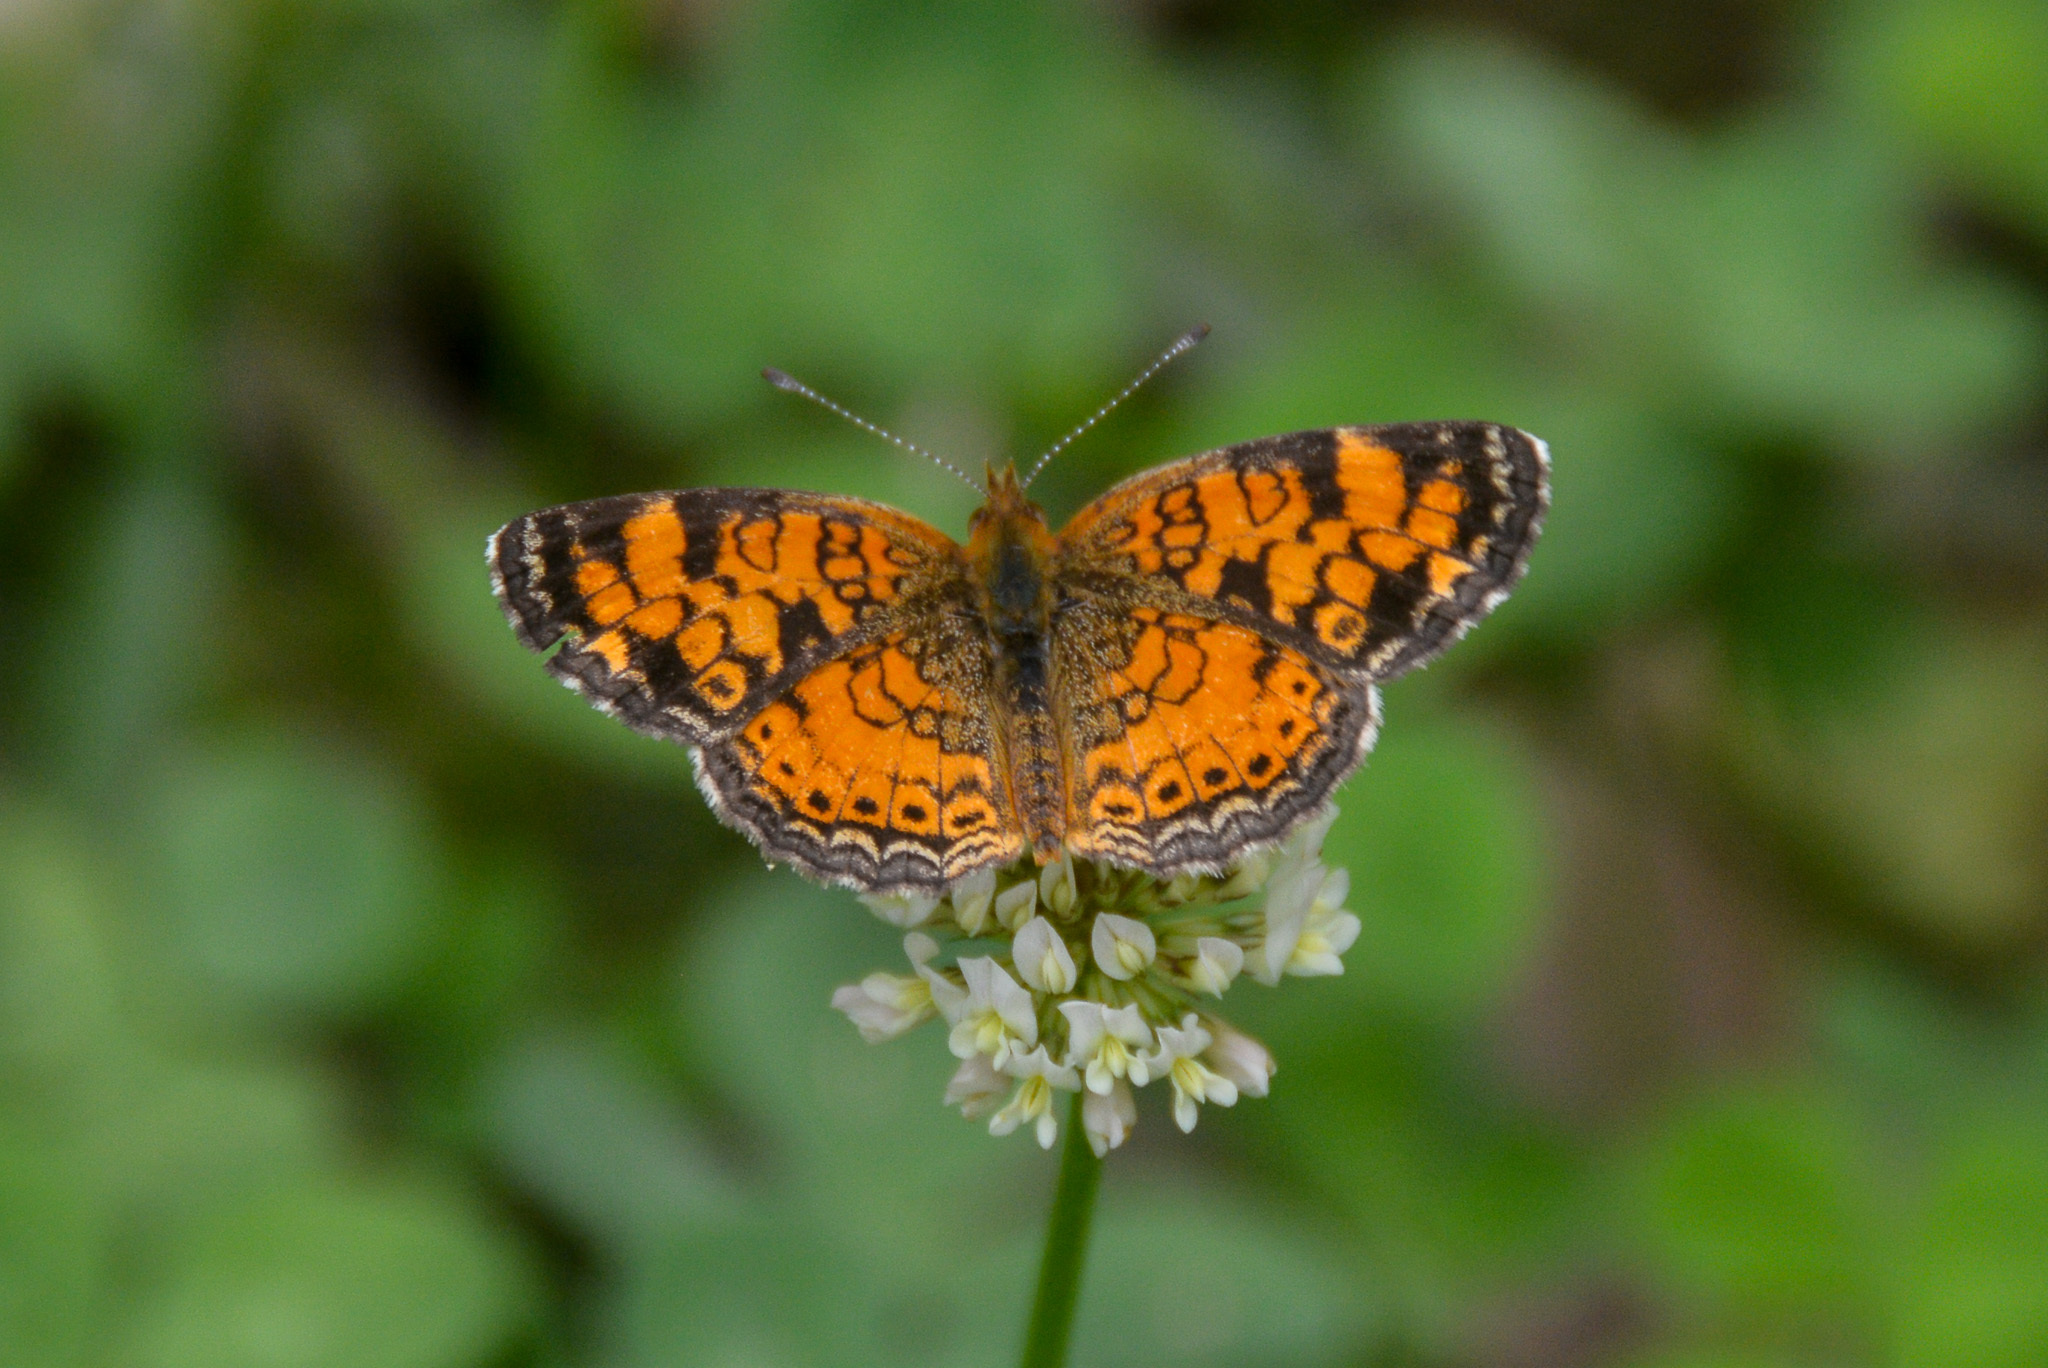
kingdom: Animalia
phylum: Arthropoda
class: Insecta
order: Lepidoptera
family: Nymphalidae
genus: Phyciodes
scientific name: Phyciodes tharos
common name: Pearl crescent
